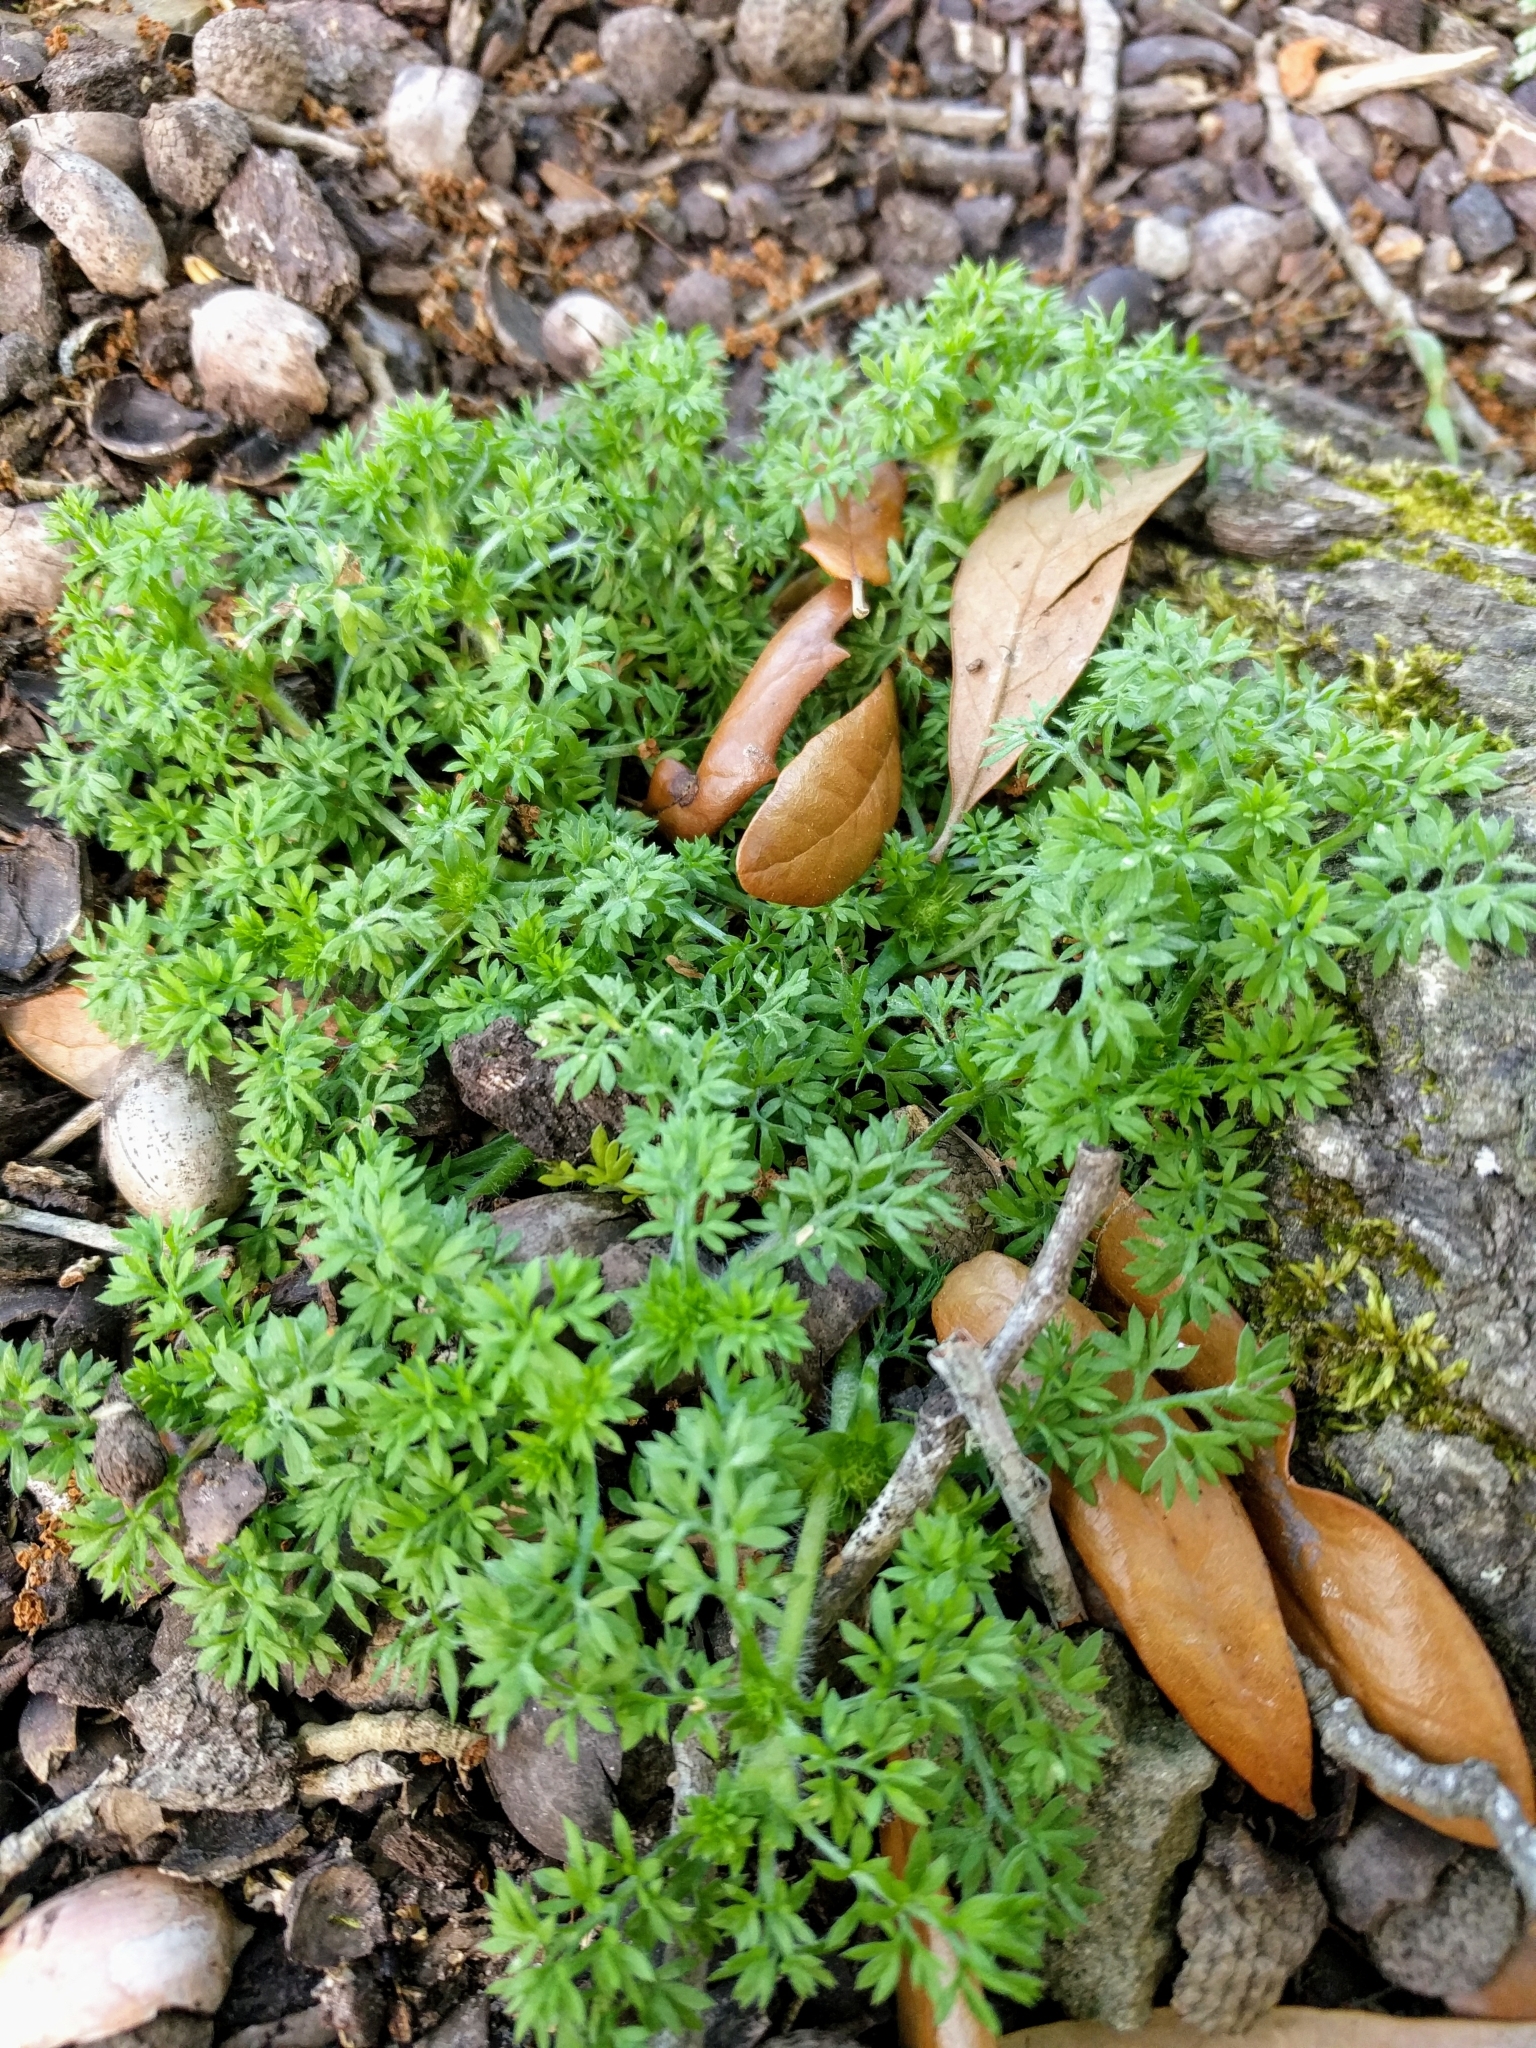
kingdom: Plantae
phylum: Tracheophyta
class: Magnoliopsida
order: Asterales
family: Asteraceae
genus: Soliva
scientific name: Soliva sessilis
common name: Field burrweed
